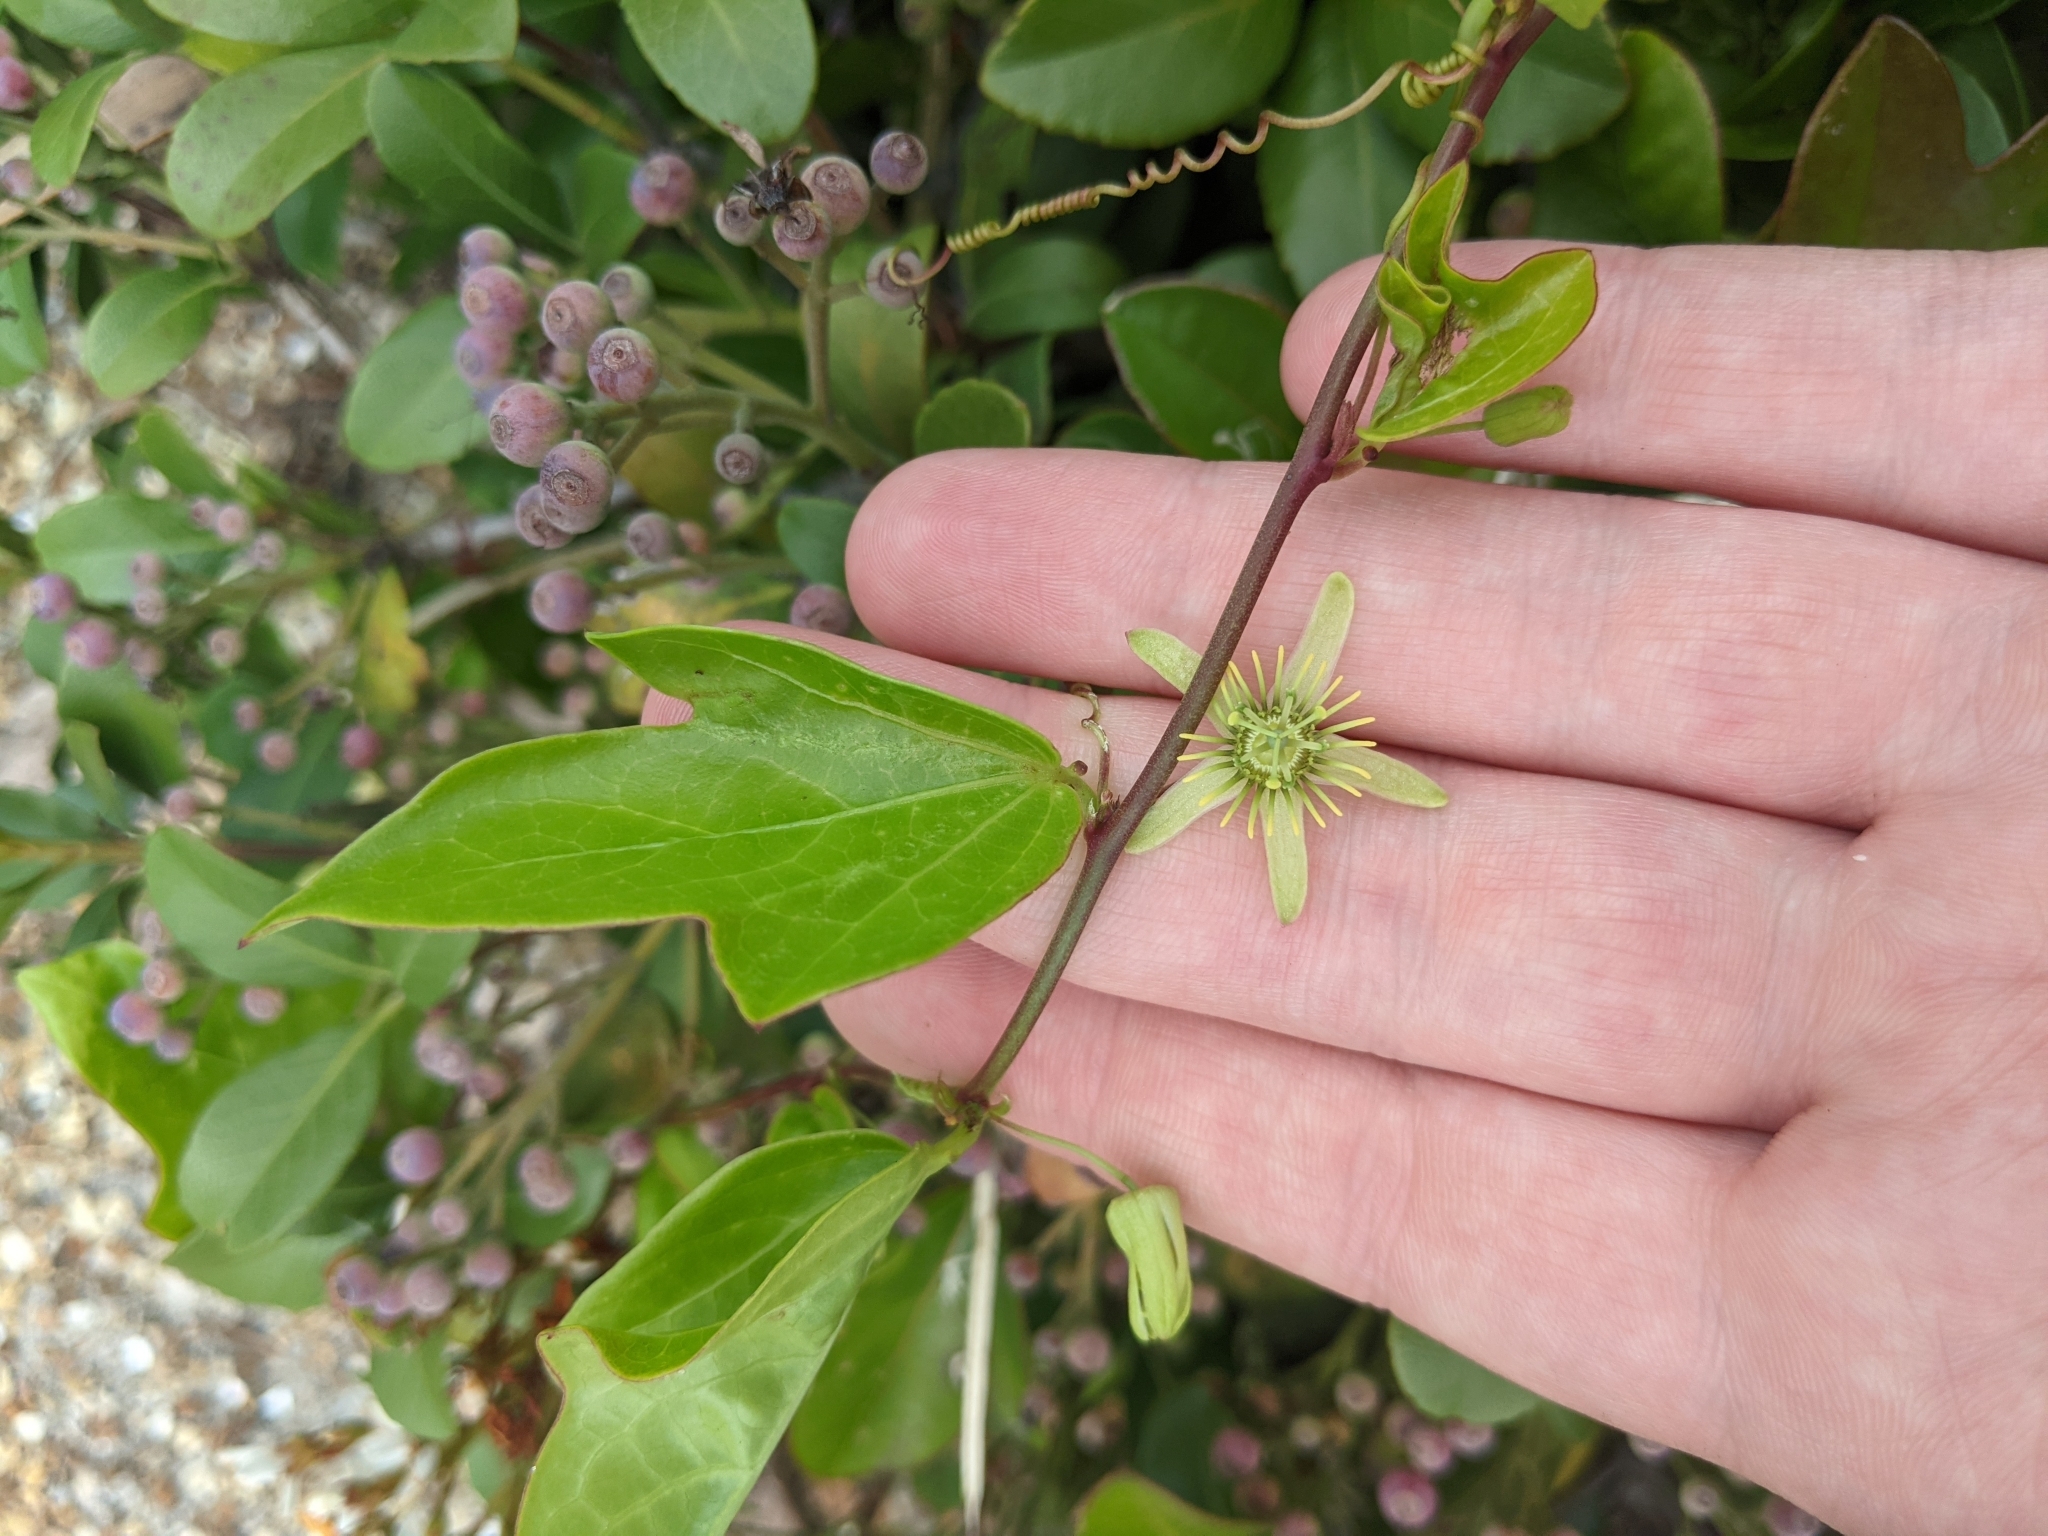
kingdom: Plantae
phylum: Tracheophyta
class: Magnoliopsida
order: Malpighiales
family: Passifloraceae
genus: Passiflora
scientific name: Passiflora pallida
